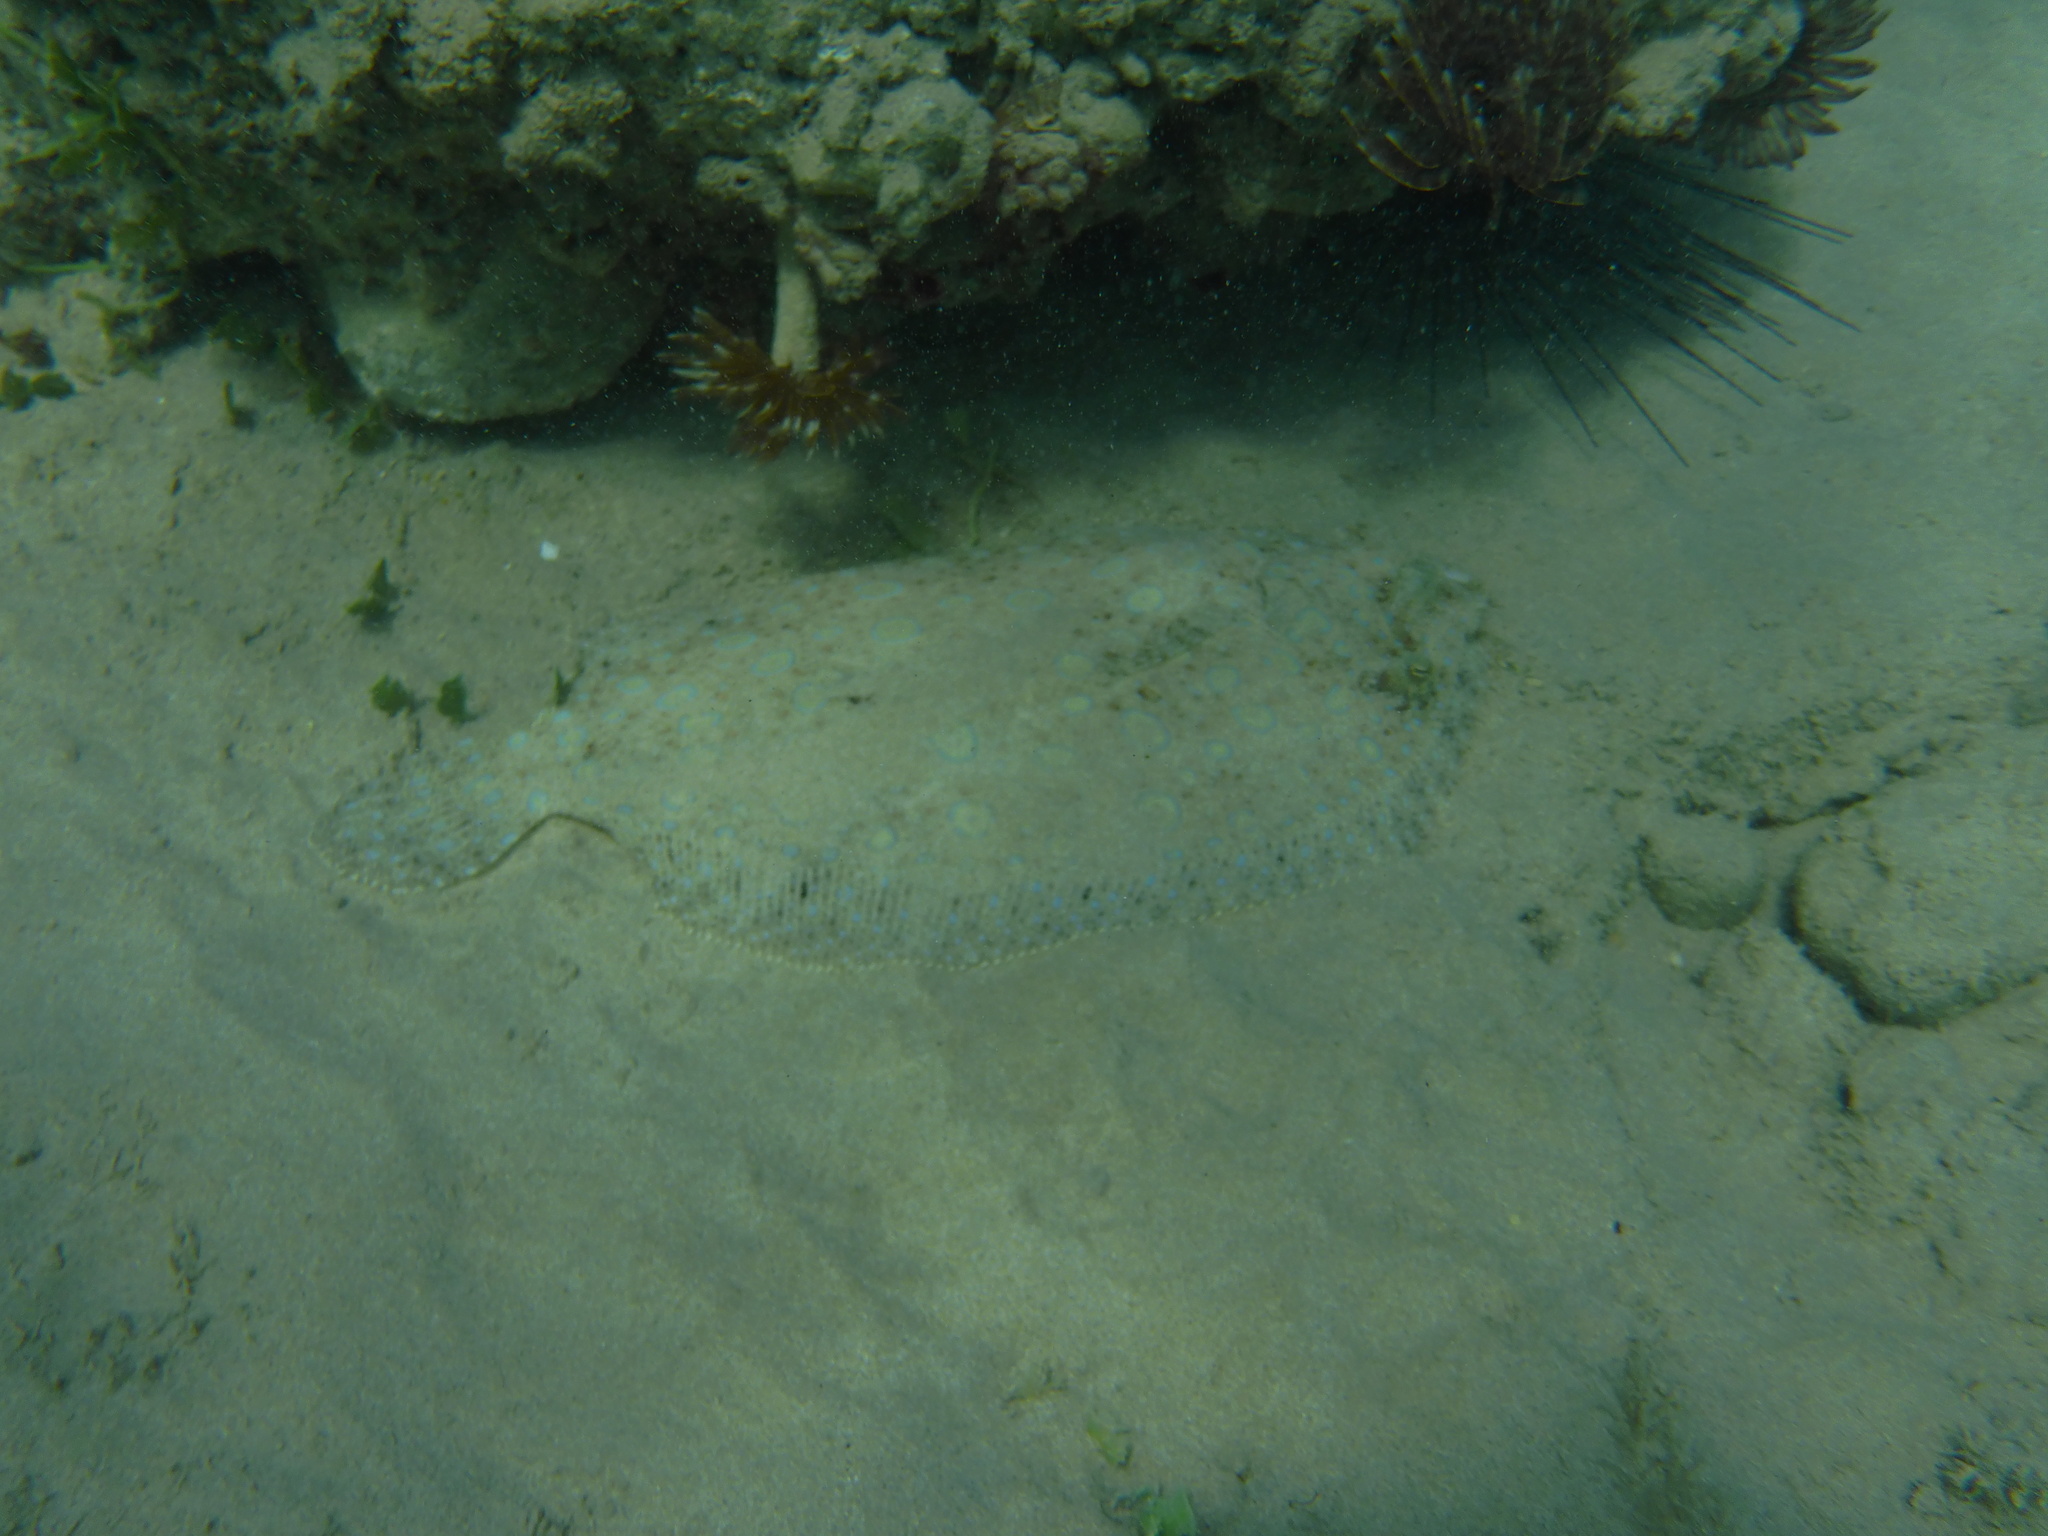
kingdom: Animalia
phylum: Chordata
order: Pleuronectiformes
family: Bothidae
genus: Bothus
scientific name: Bothus lunatus
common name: Peacock flounder
